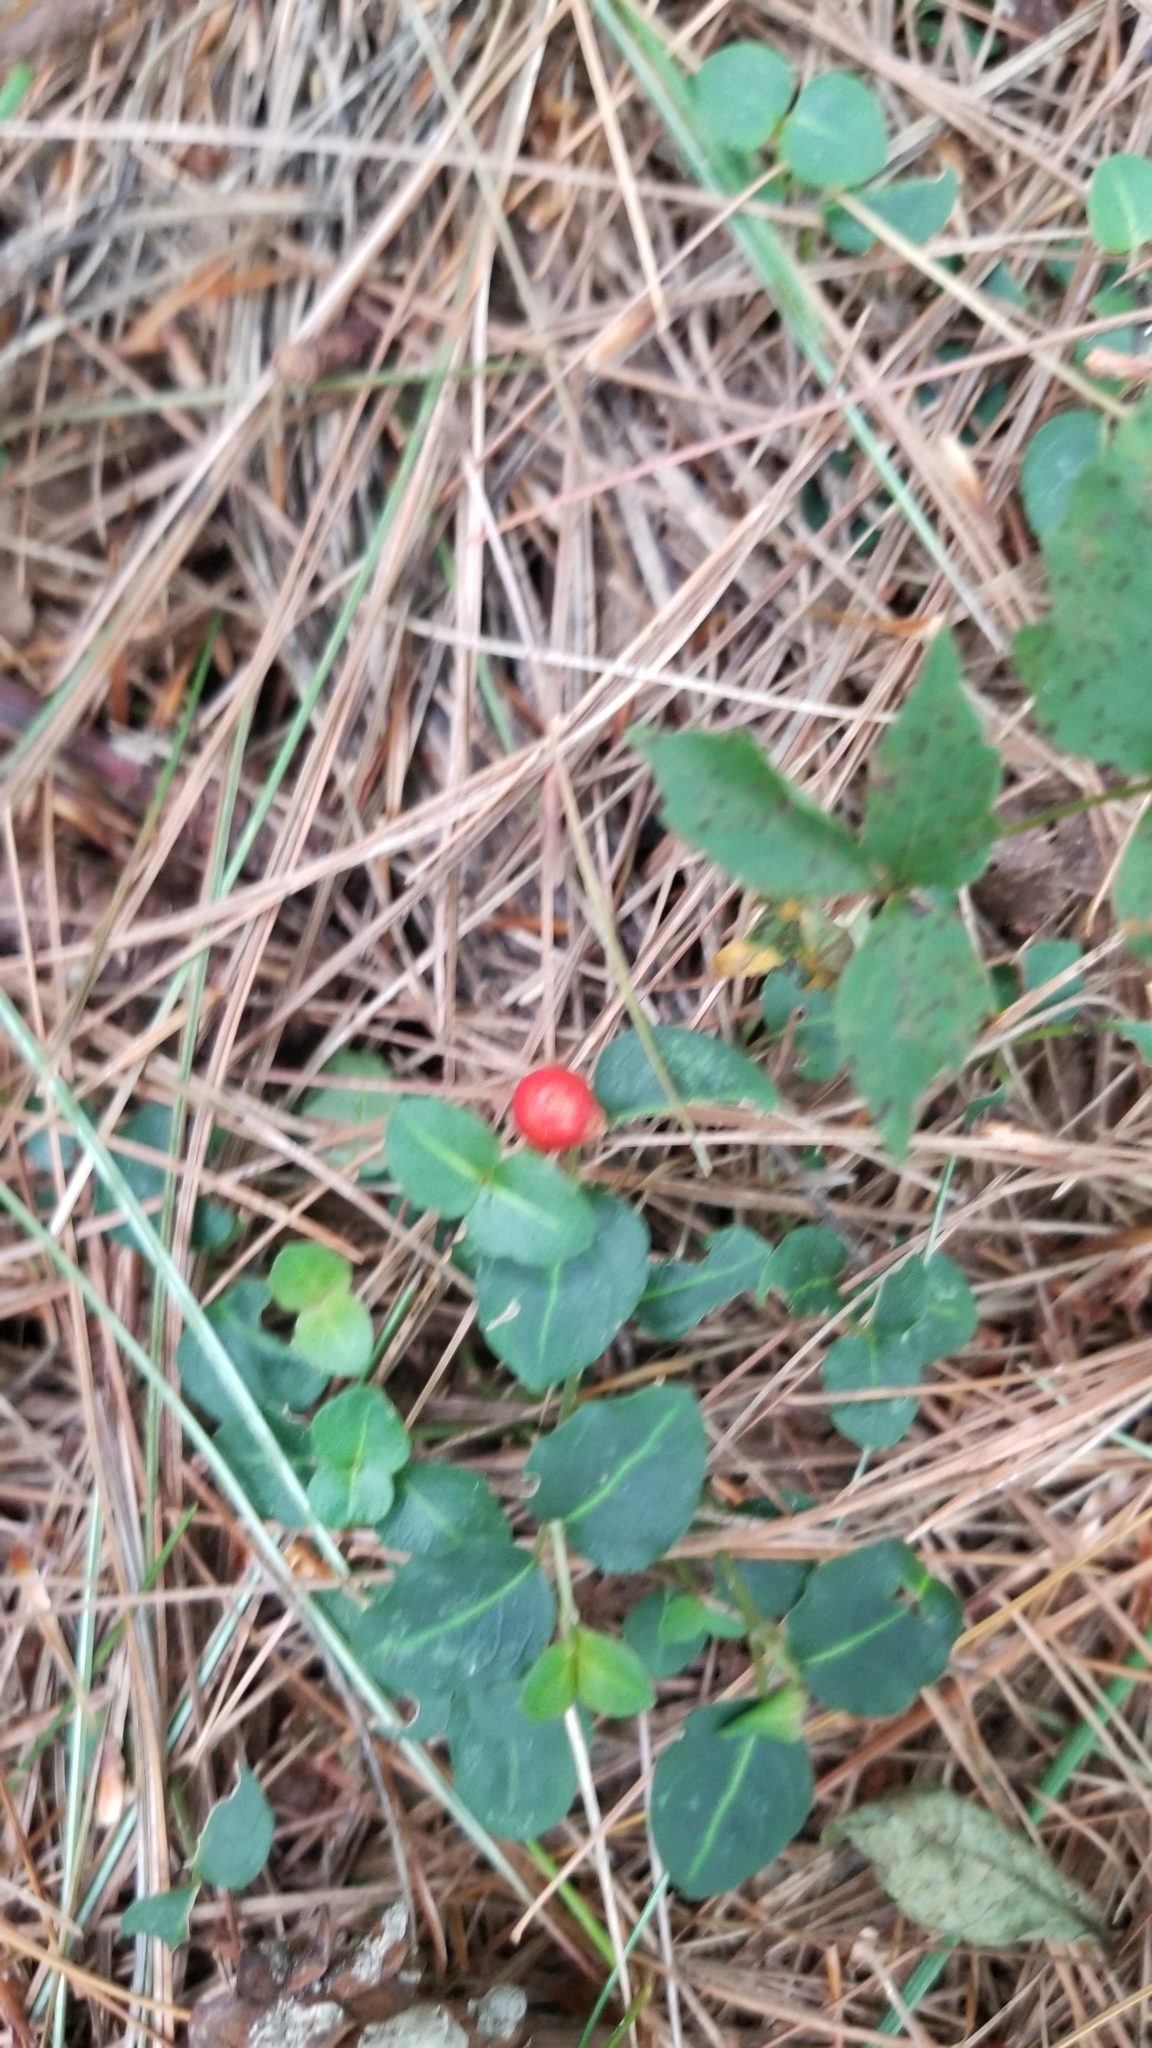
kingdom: Plantae
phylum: Tracheophyta
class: Magnoliopsida
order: Gentianales
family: Rubiaceae
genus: Mitchella
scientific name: Mitchella repens
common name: Partridge-berry
